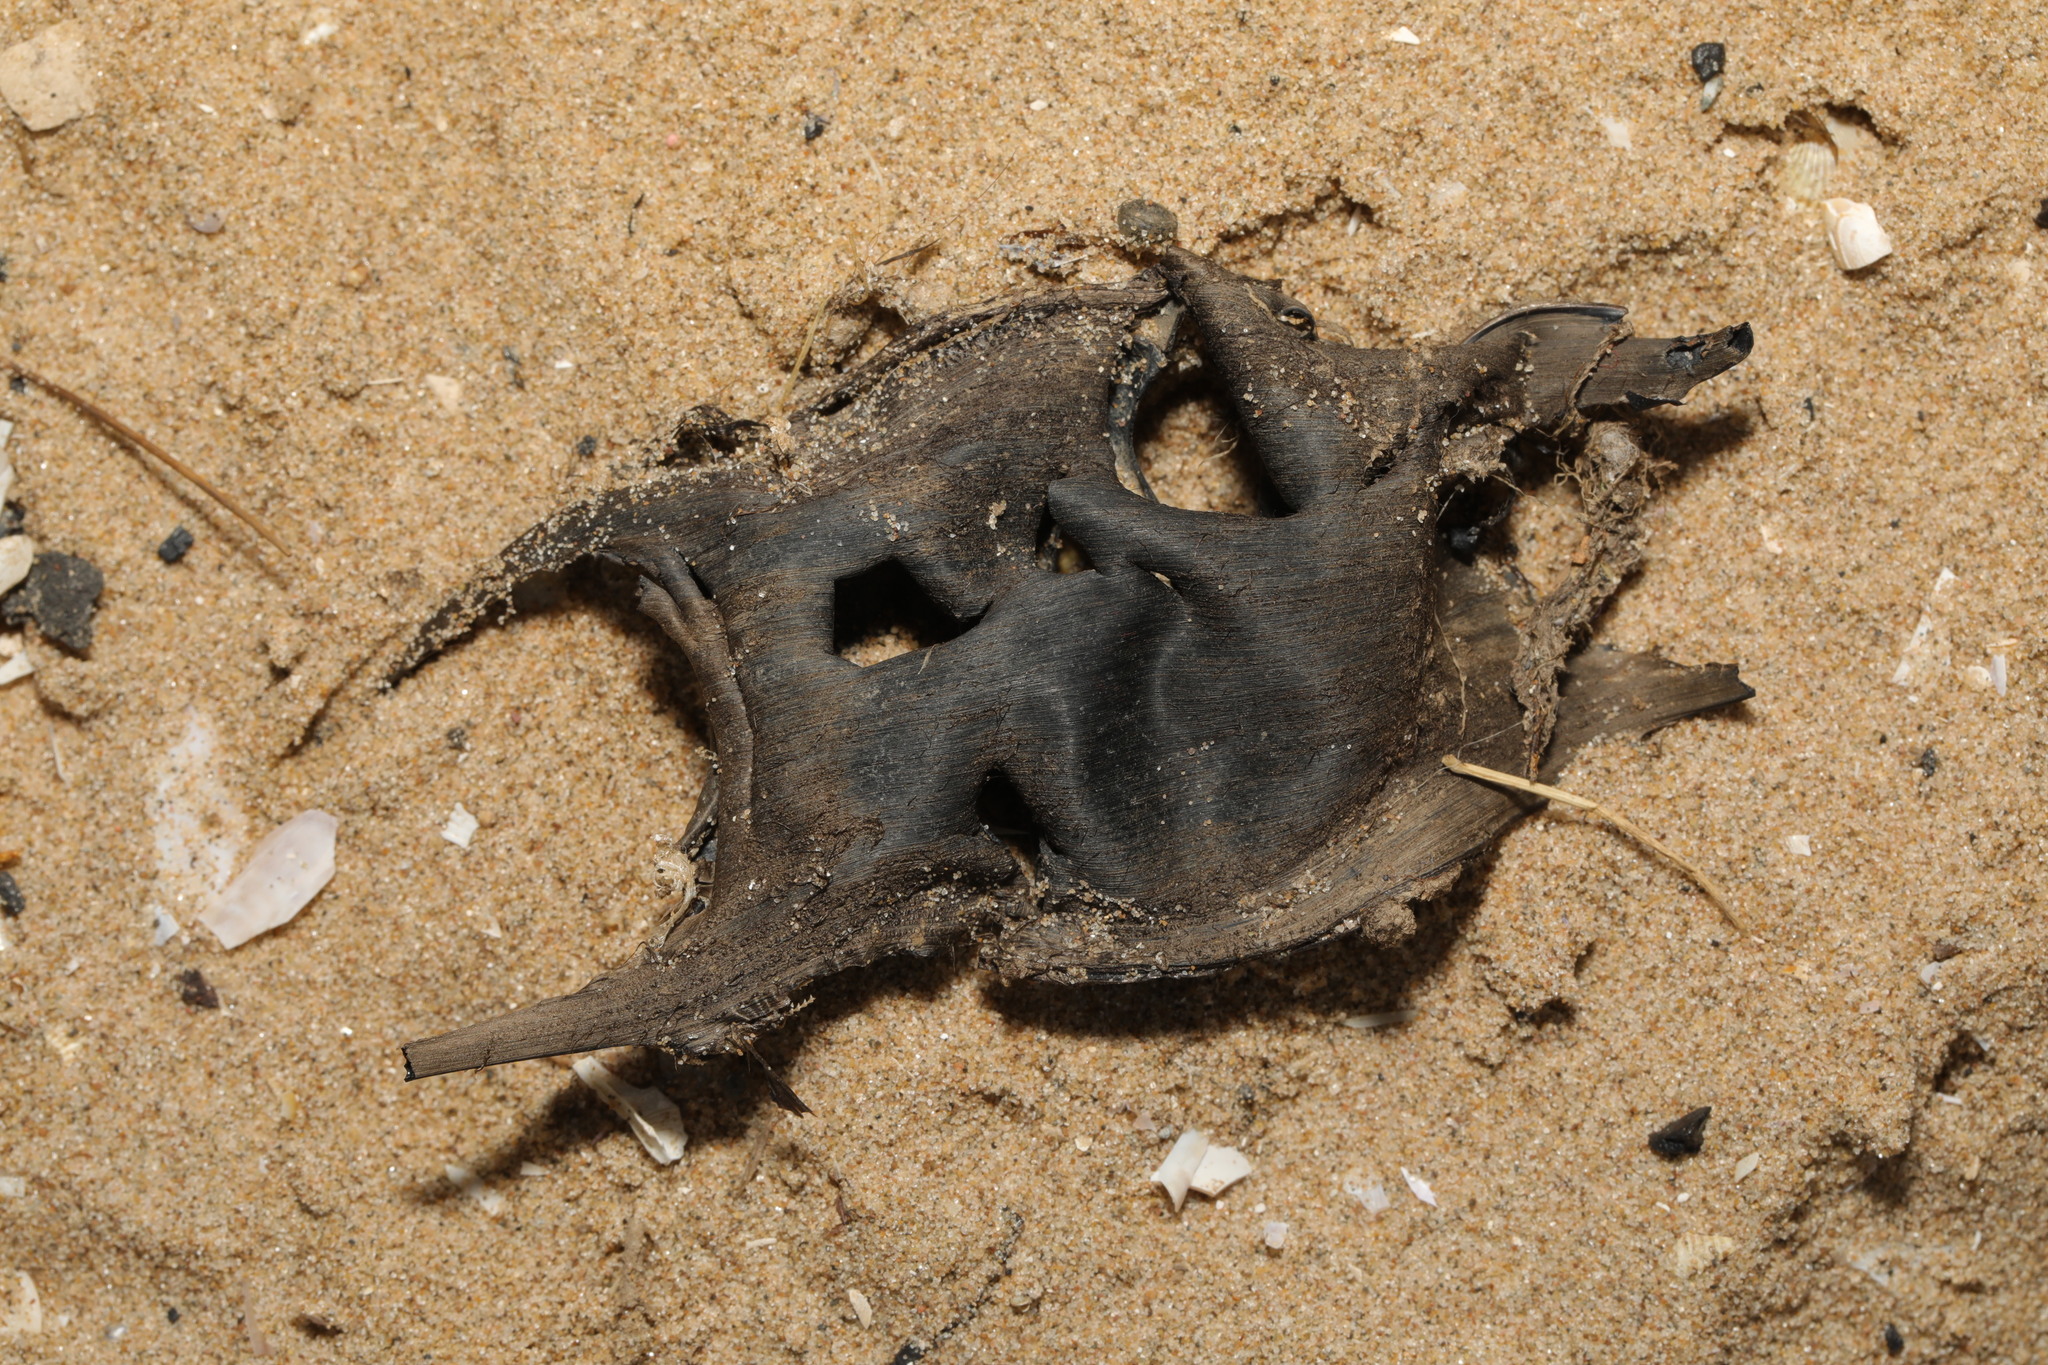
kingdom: Animalia
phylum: Chordata
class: Elasmobranchii
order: Rajiformes
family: Rajidae
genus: Raja
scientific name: Raja clavata
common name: Thornback ray
